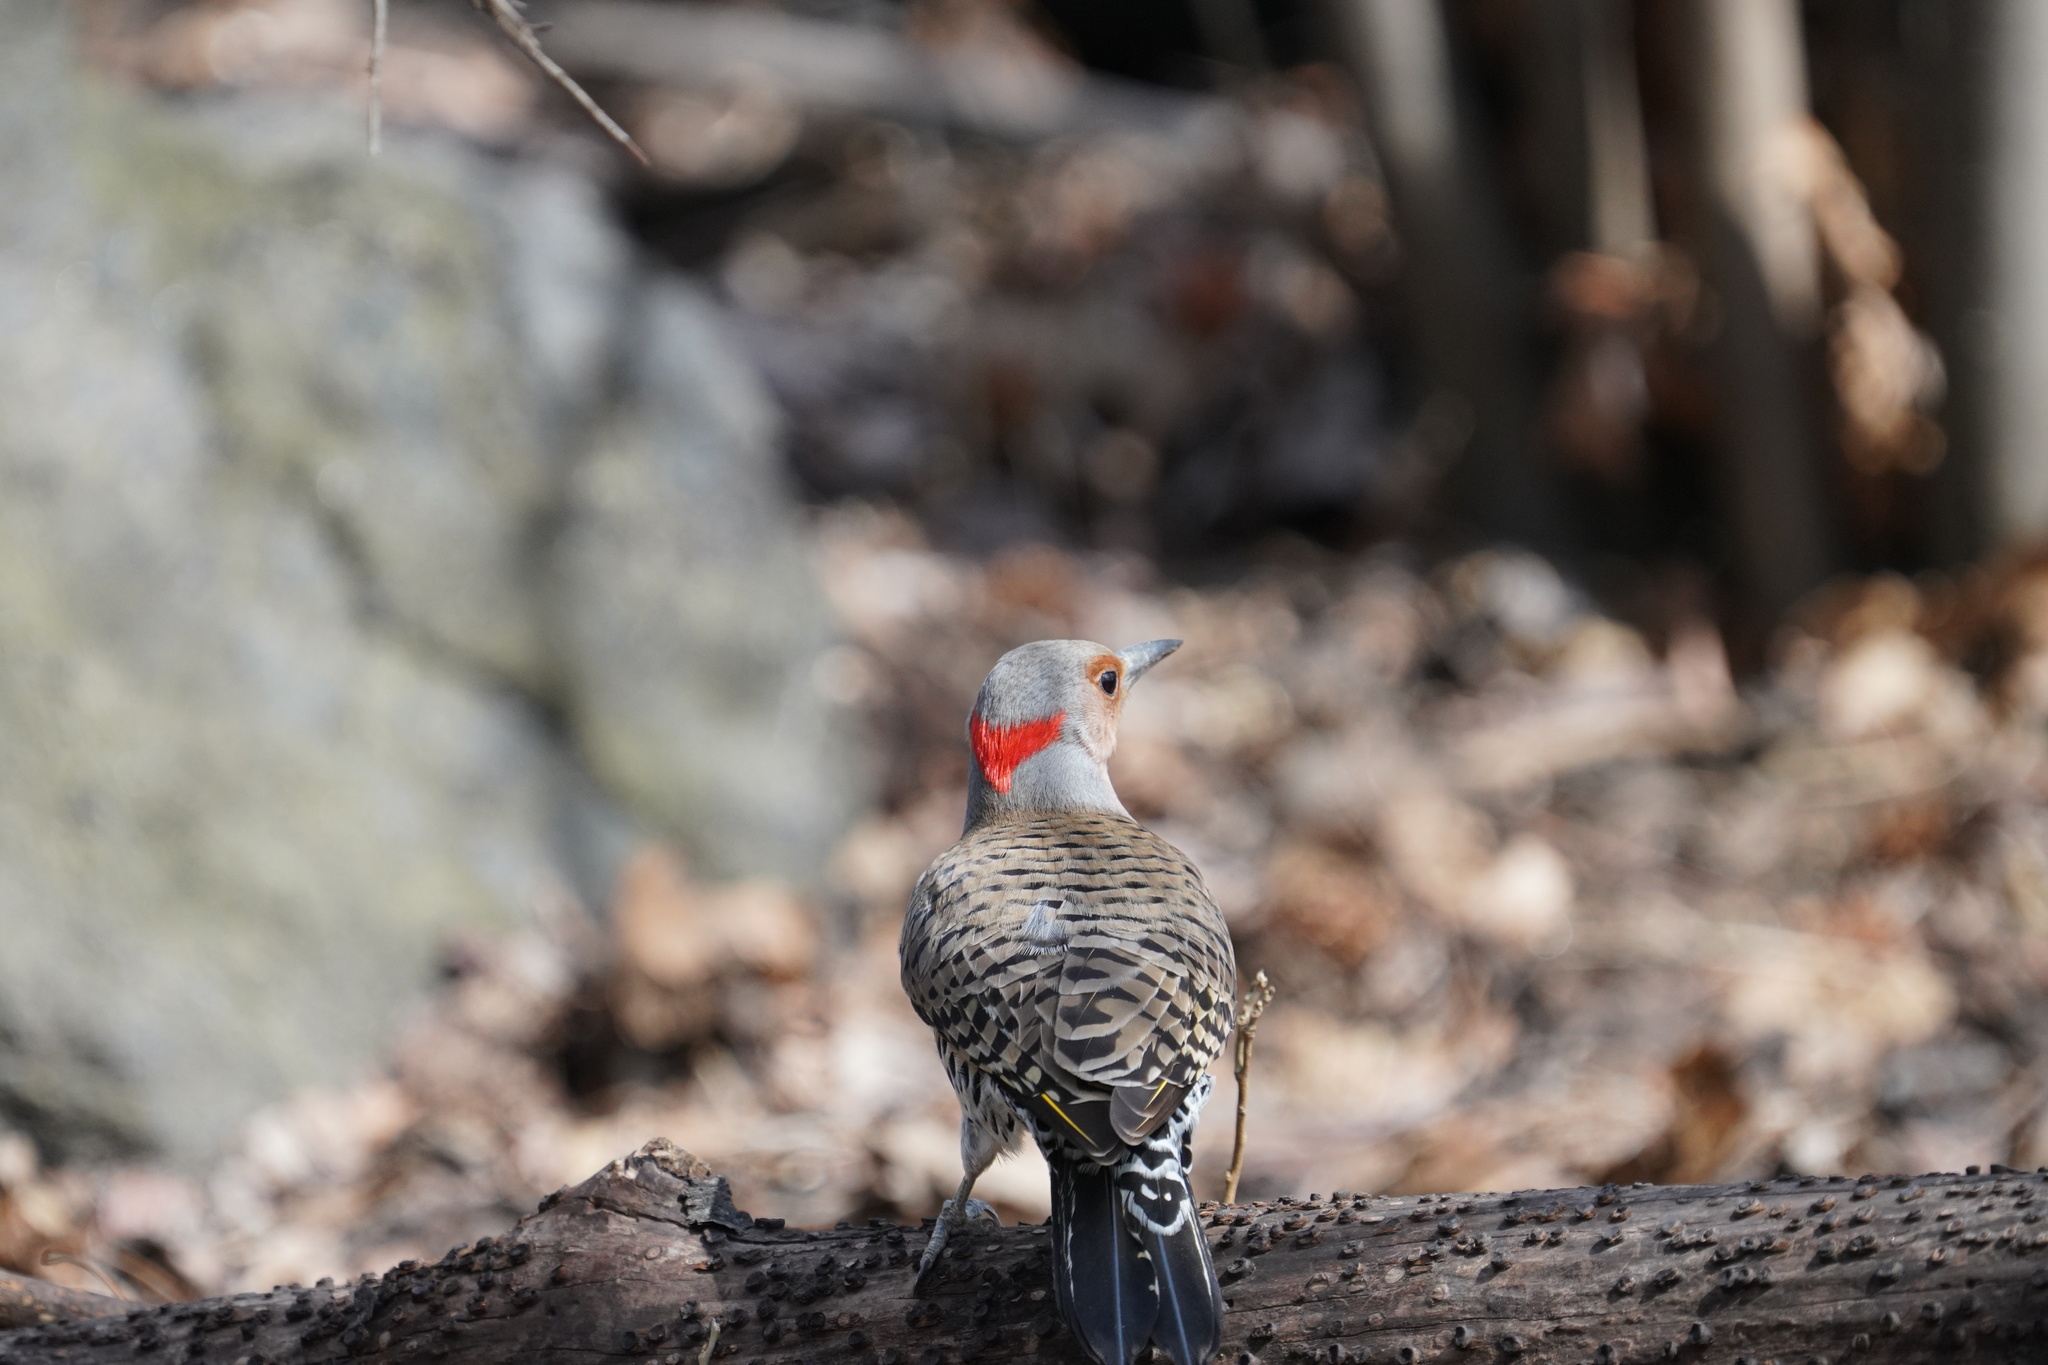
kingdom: Animalia
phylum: Chordata
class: Aves
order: Piciformes
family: Picidae
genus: Colaptes
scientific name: Colaptes auratus
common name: Northern flicker
